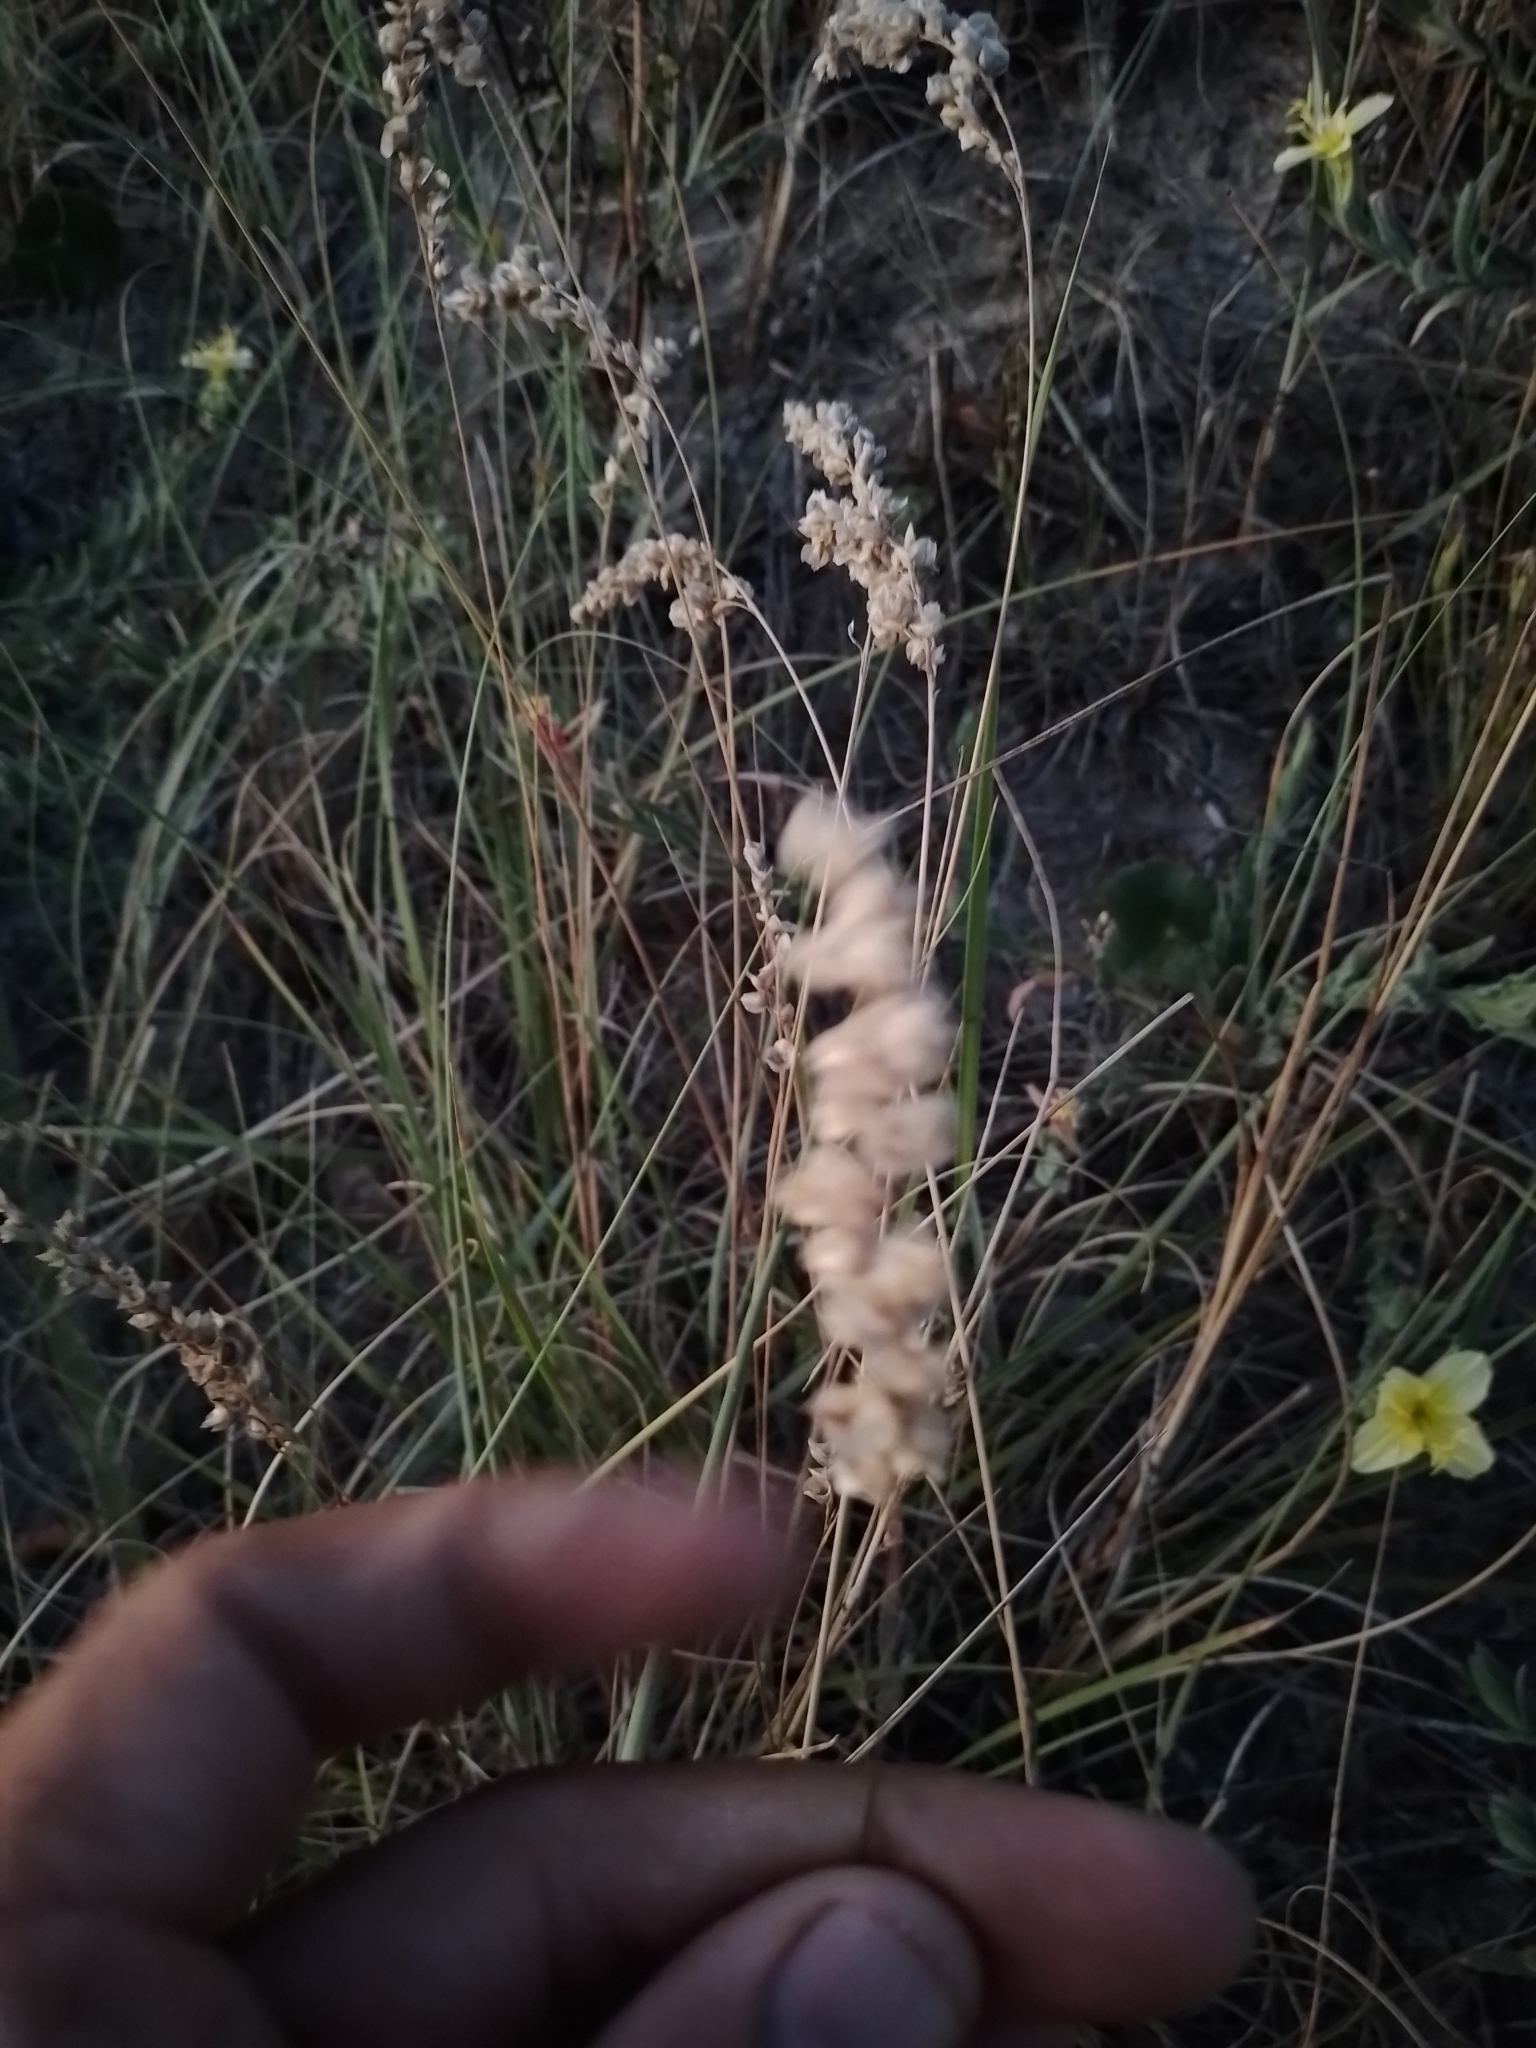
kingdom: Plantae
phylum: Tracheophyta
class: Liliopsida
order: Poales
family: Poaceae
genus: Chascolytrum
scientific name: Chascolytrum erectum
